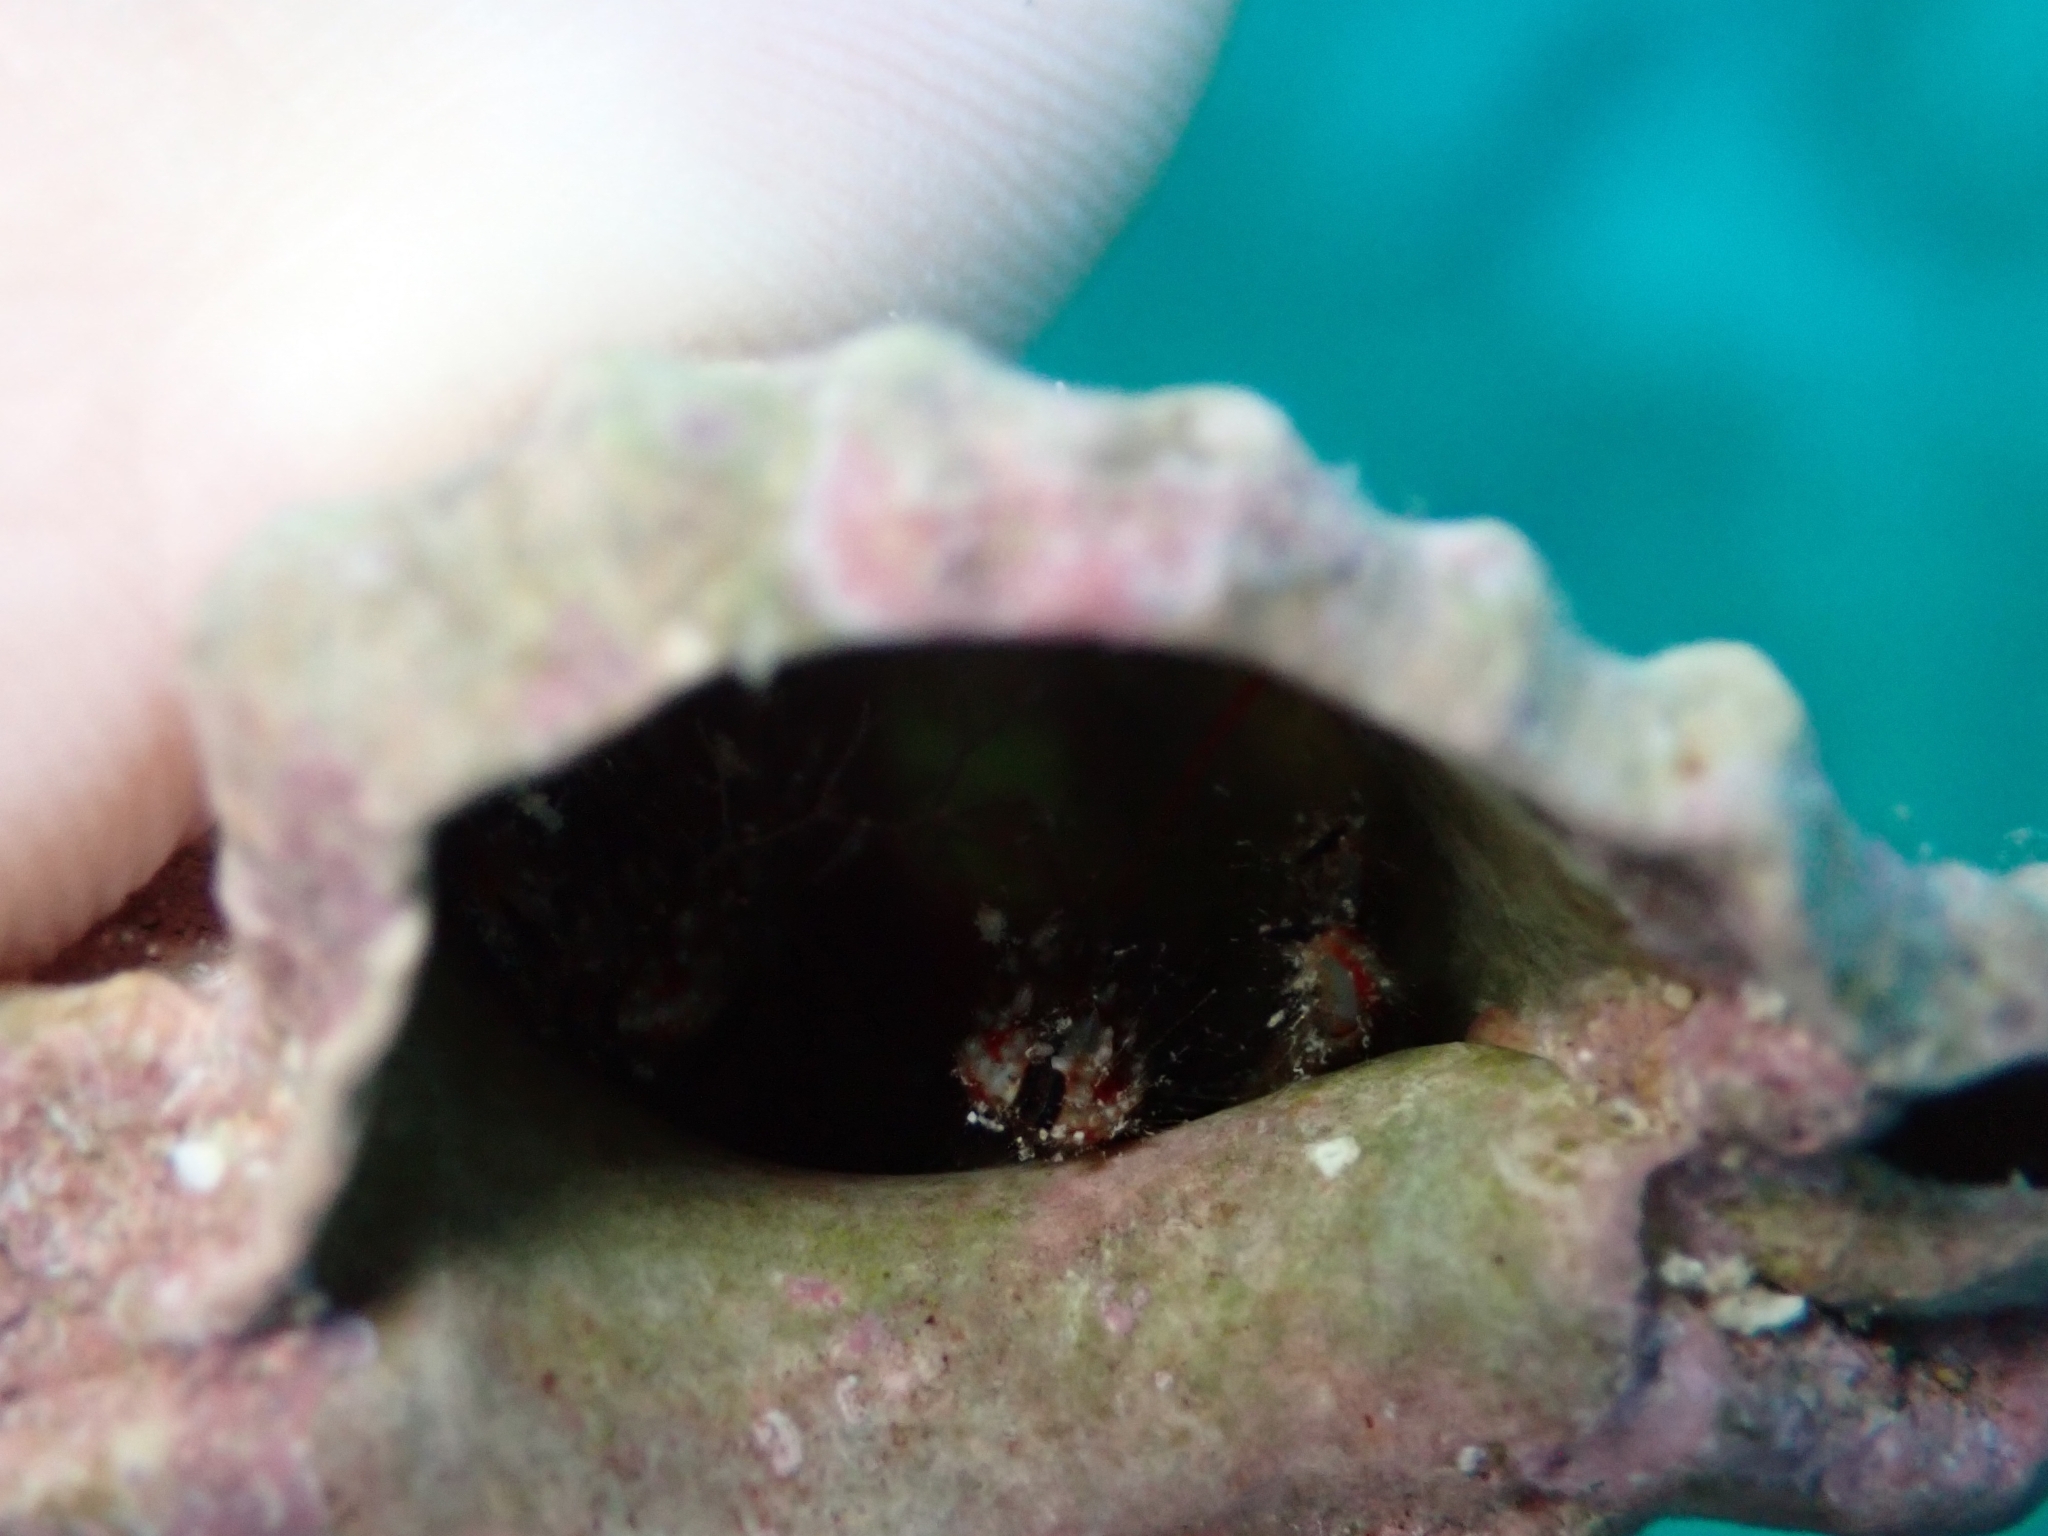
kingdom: Animalia
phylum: Arthropoda
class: Malacostraca
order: Decapoda
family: Diogenidae
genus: Clibanarius
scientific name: Clibanarius erythropus
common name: Hermit crab
